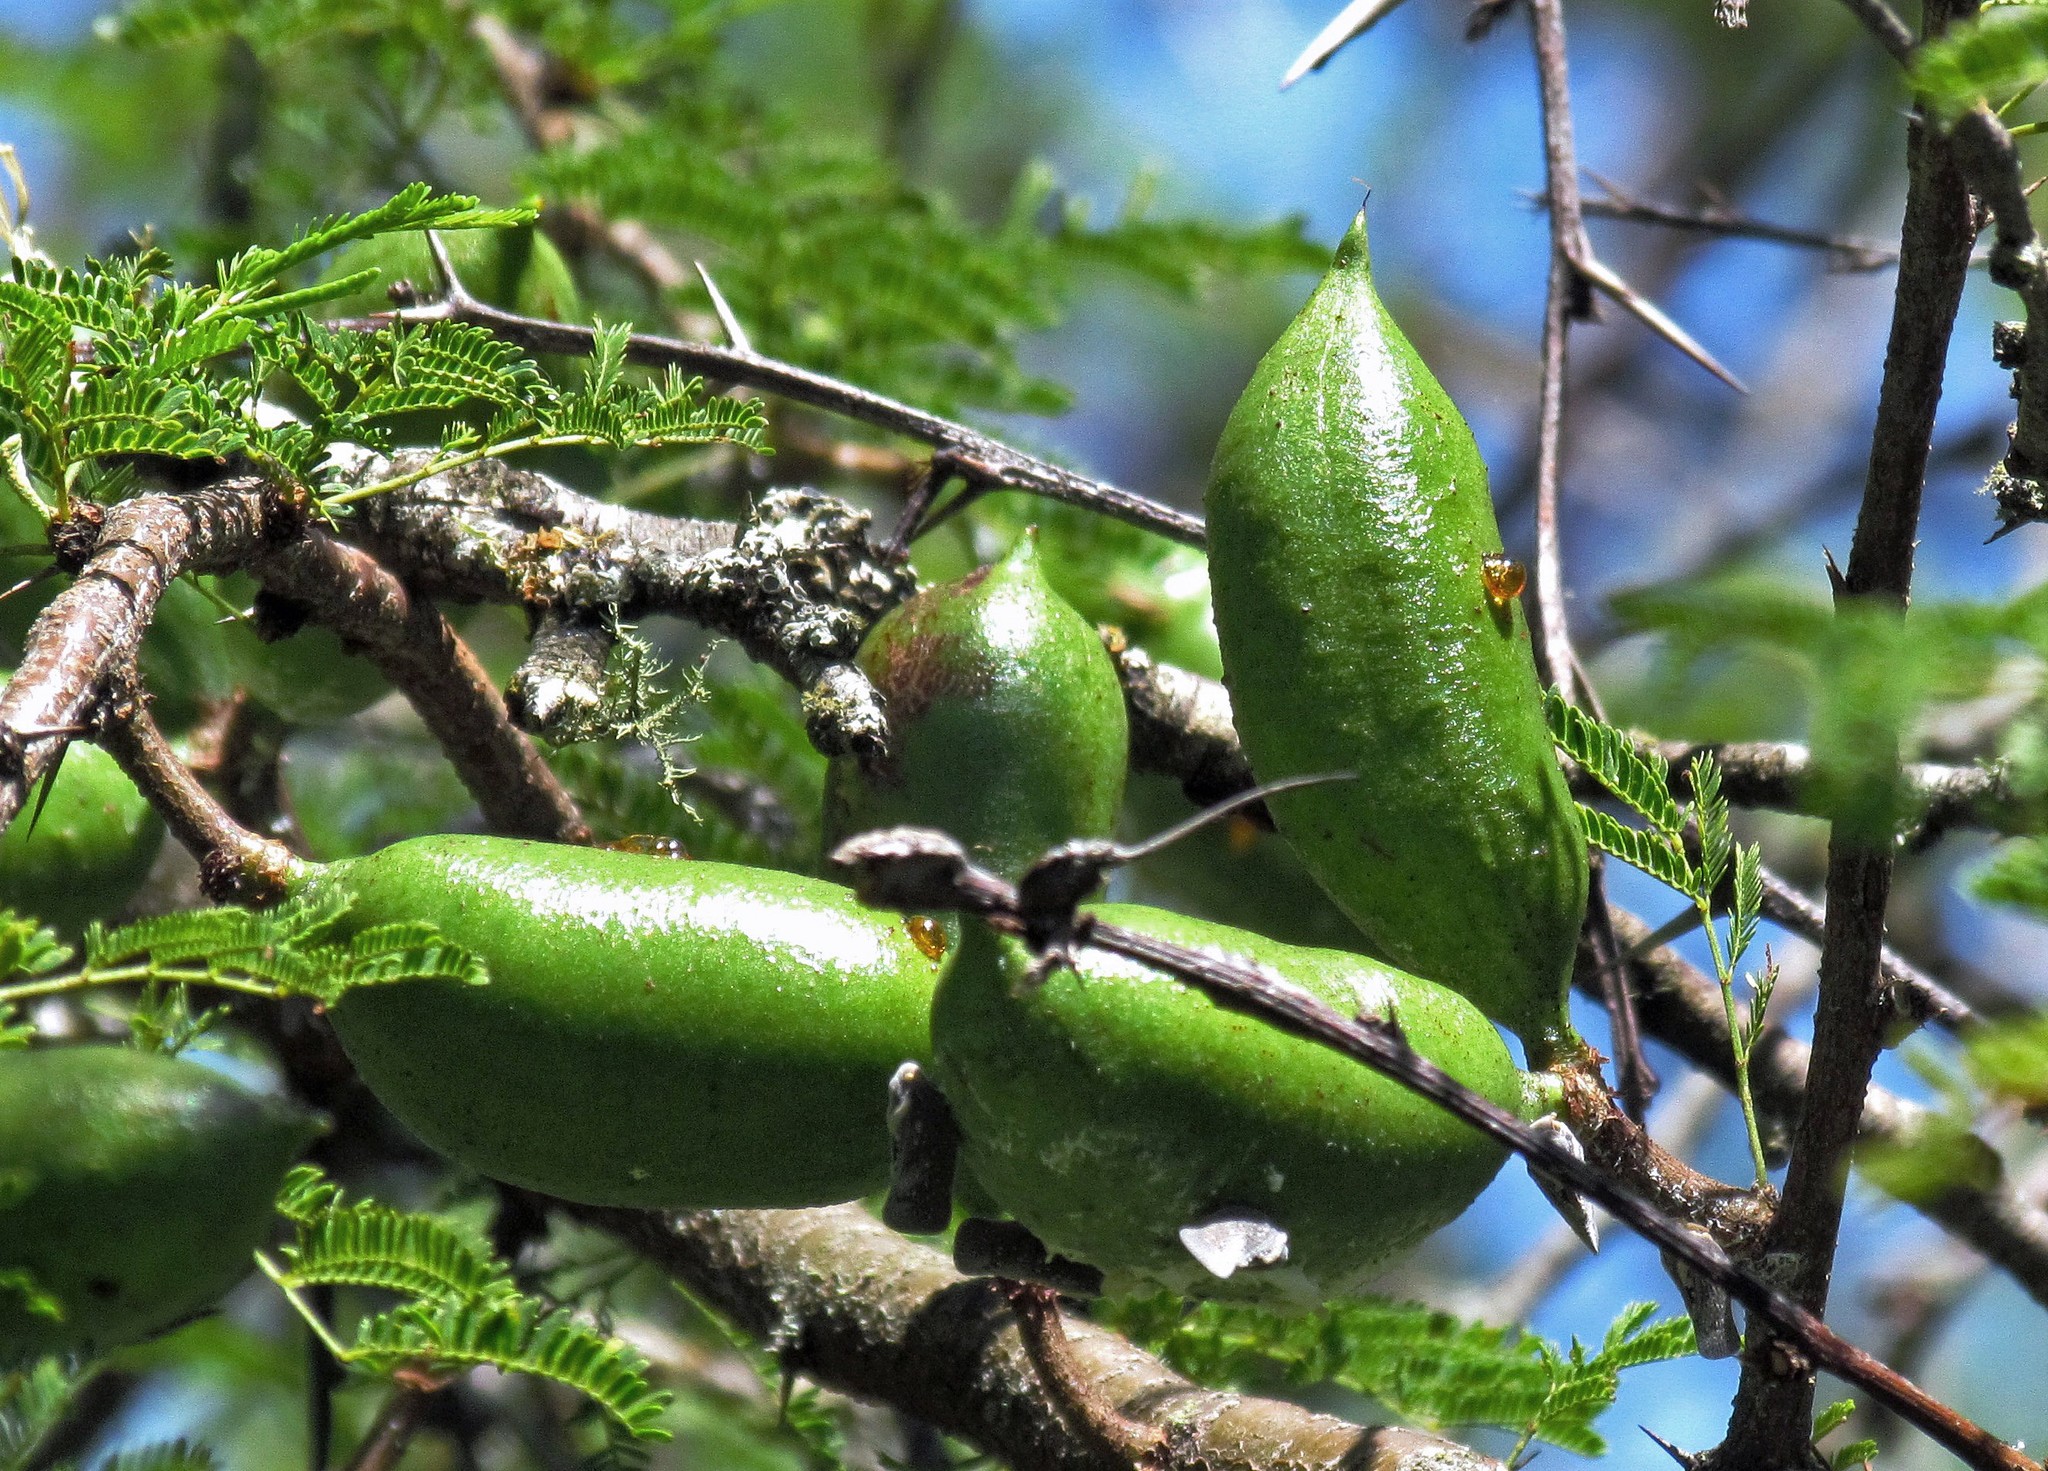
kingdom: Plantae
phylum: Tracheophyta
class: Magnoliopsida
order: Fabales
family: Fabaceae
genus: Vachellia
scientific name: Vachellia caven
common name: Roman cassie
